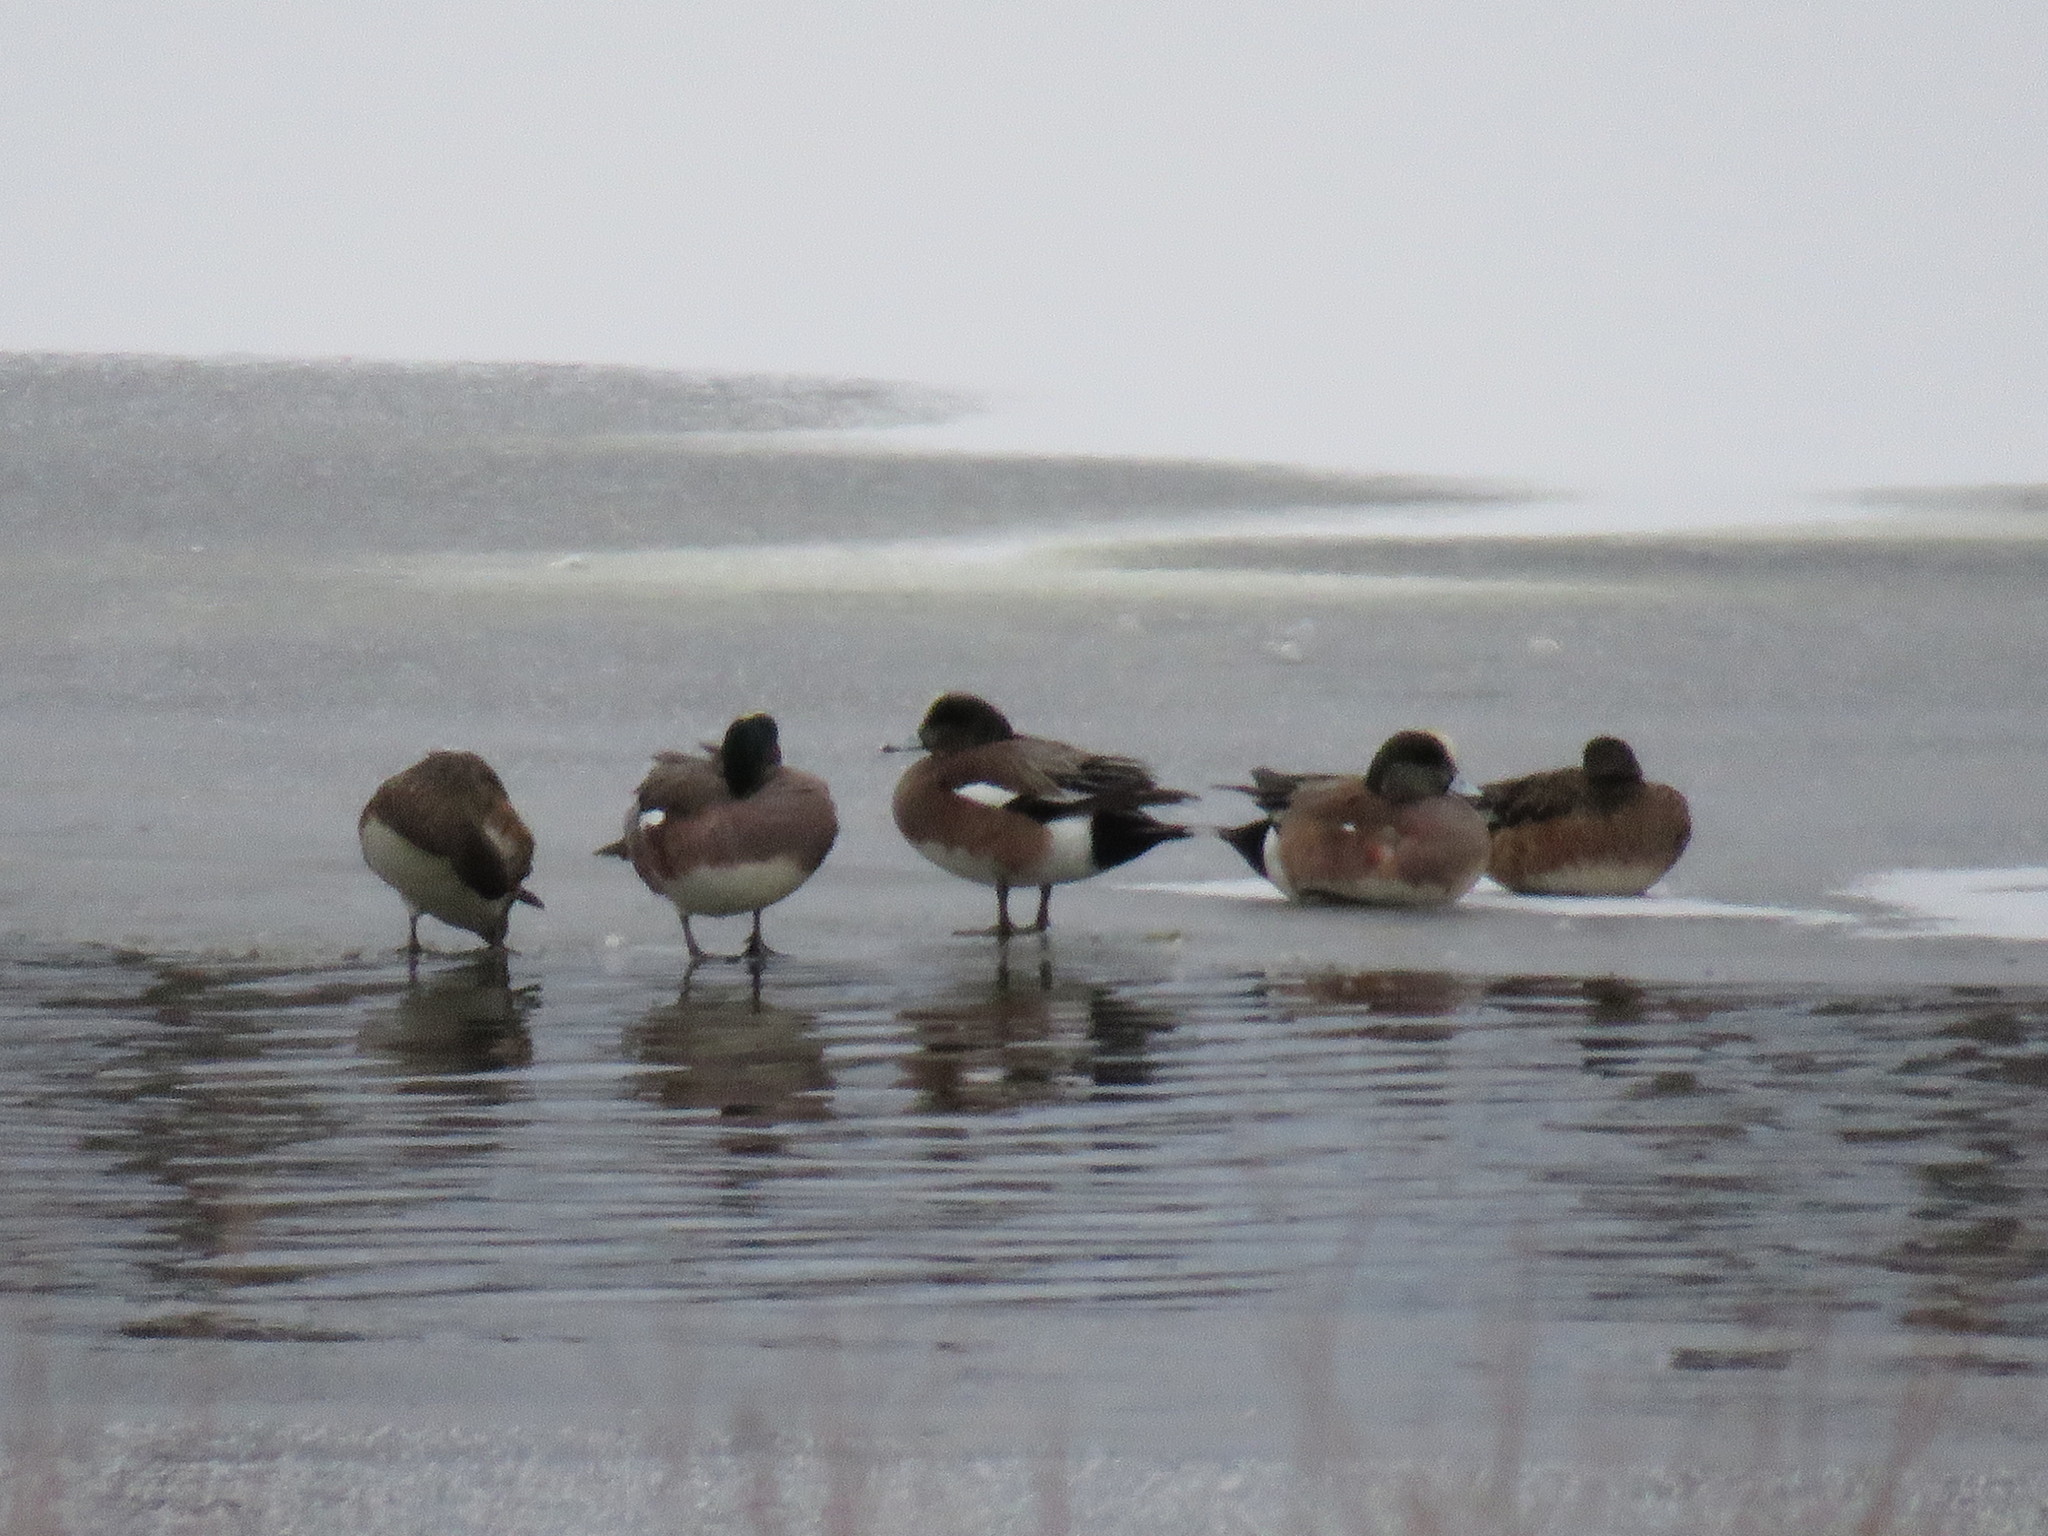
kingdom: Animalia
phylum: Chordata
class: Aves
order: Anseriformes
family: Anatidae
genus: Mareca
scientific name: Mareca americana
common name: American wigeon
